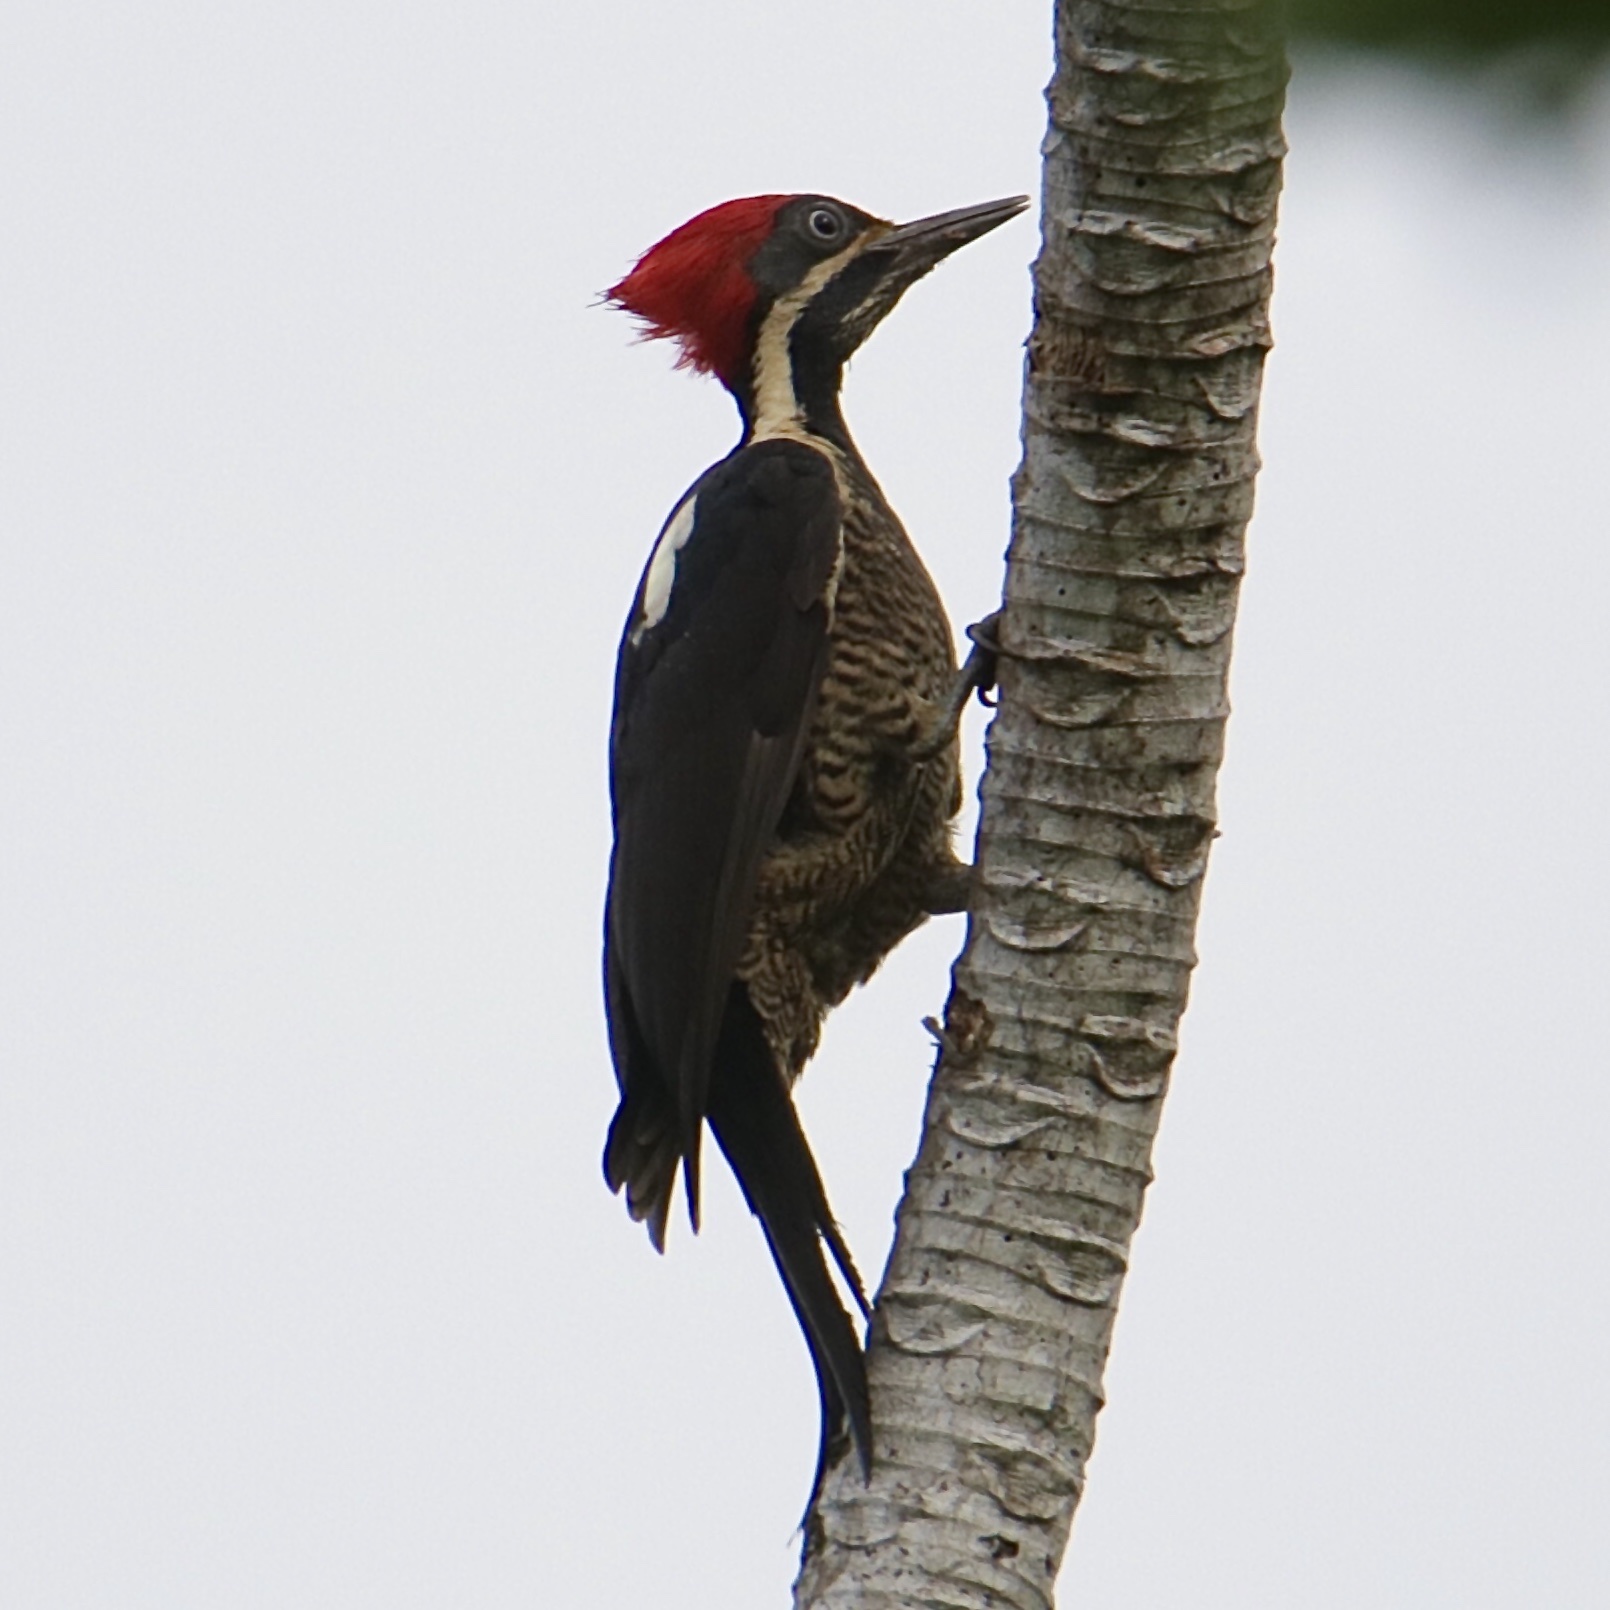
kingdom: Animalia
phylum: Chordata
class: Aves
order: Piciformes
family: Picidae
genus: Dryocopus
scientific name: Dryocopus lineatus
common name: Lineated woodpecker
